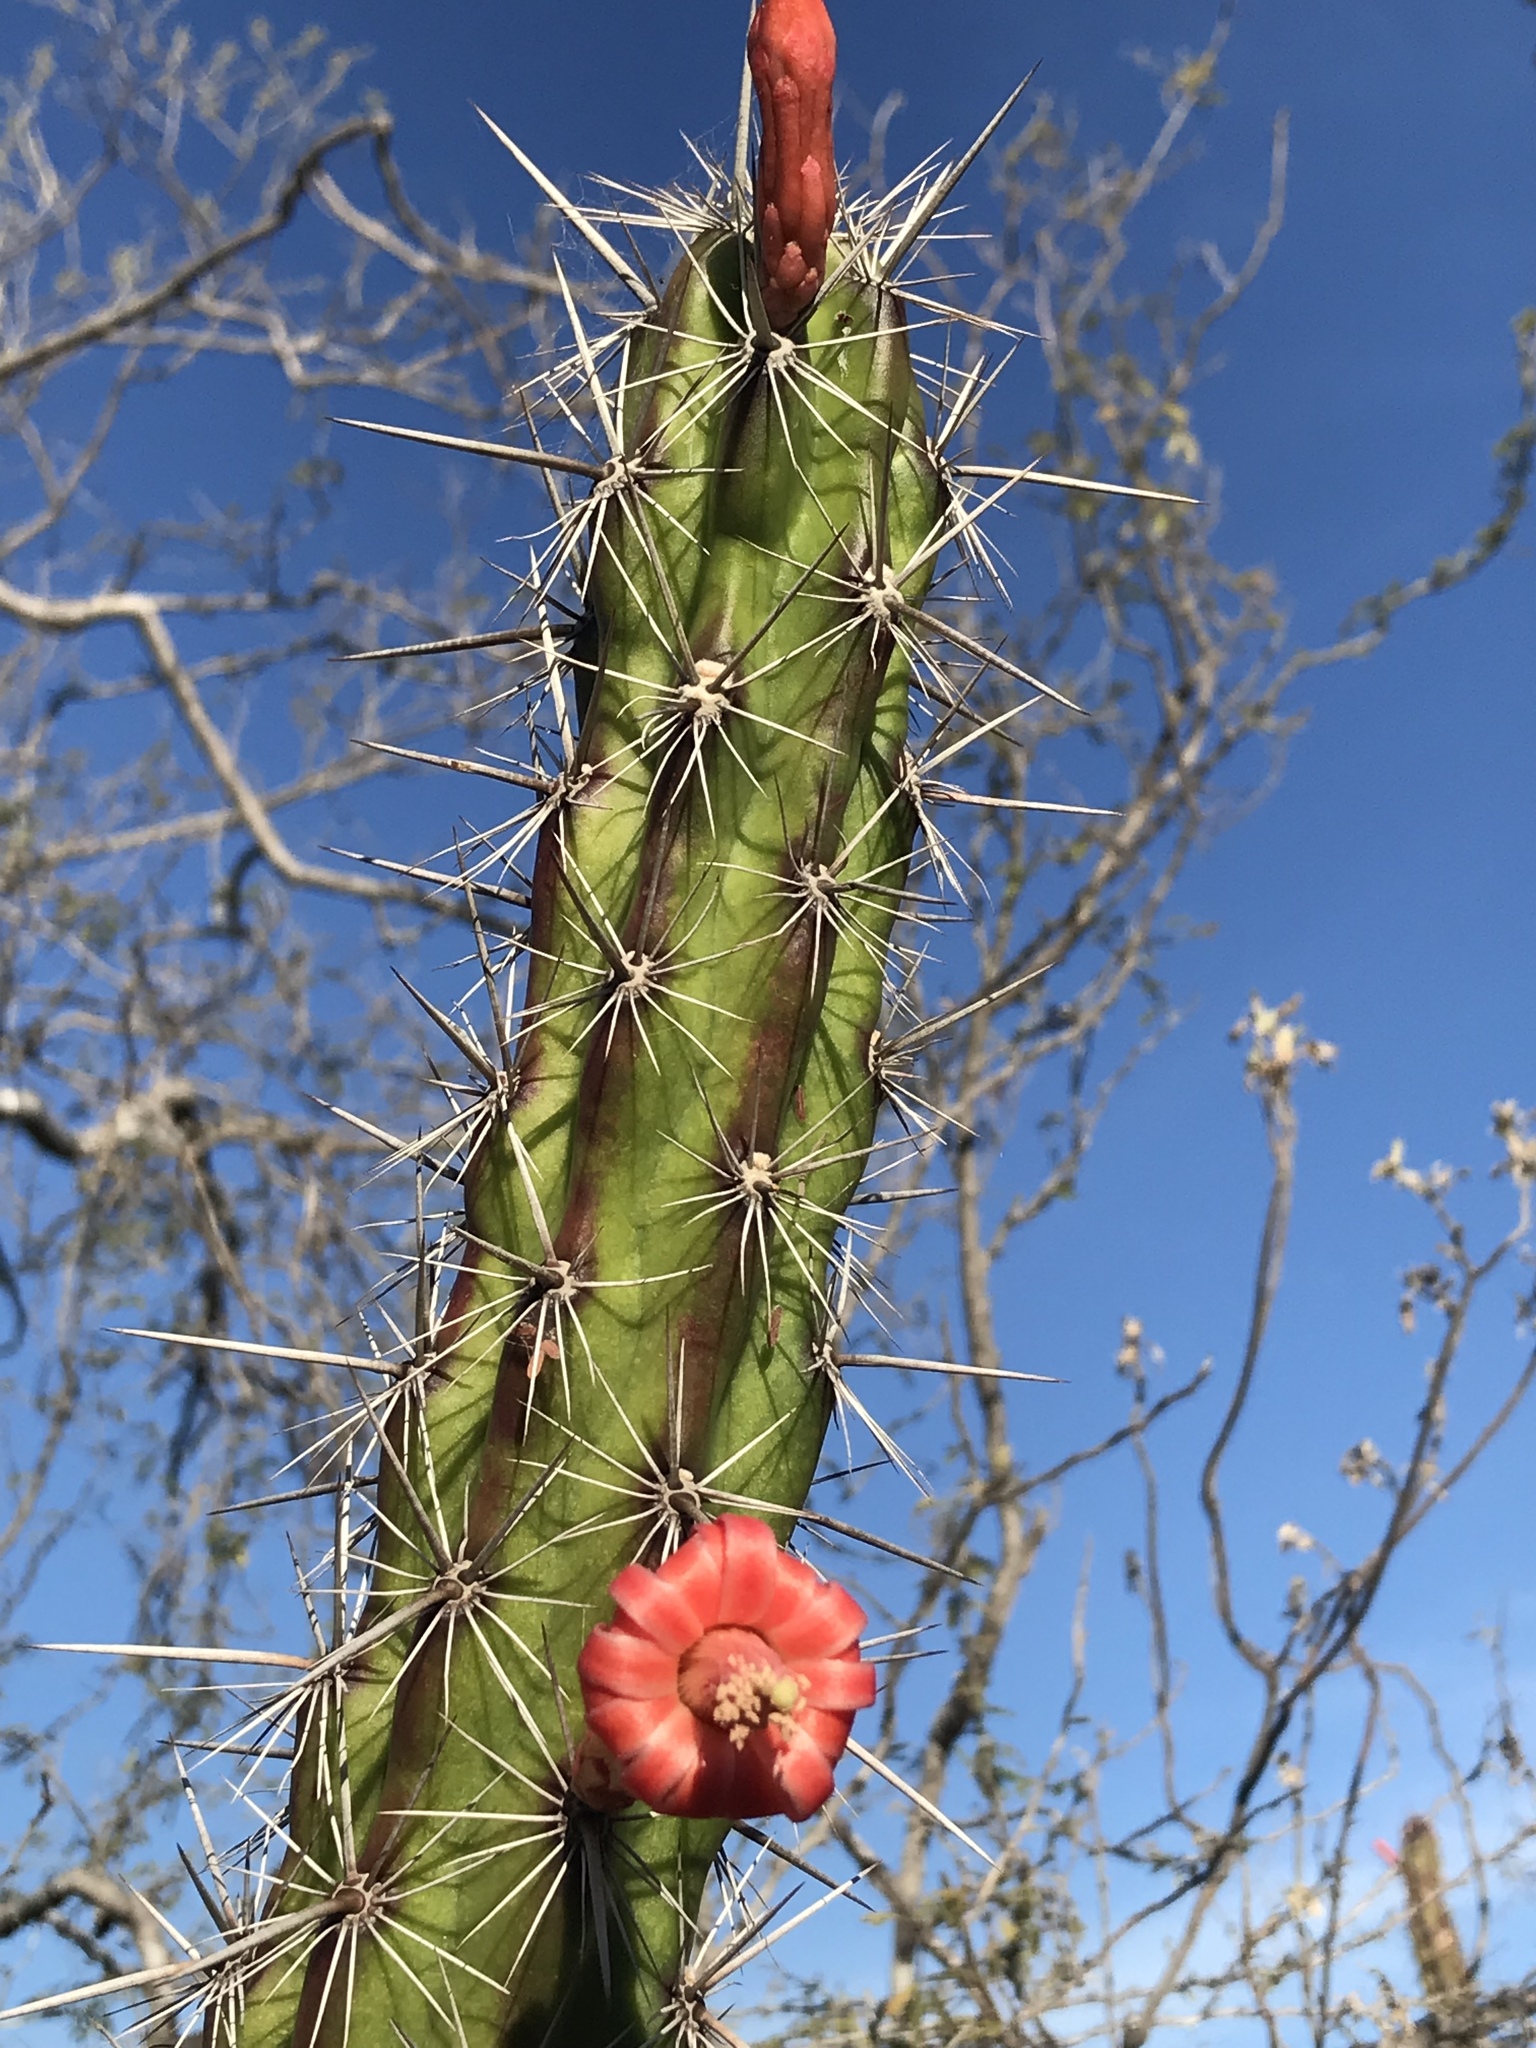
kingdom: Plantae
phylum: Tracheophyta
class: Magnoliopsida
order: Caryophyllales
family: Cactaceae
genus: Stenocereus
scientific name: Stenocereus alamosensis
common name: Octopus cactus
